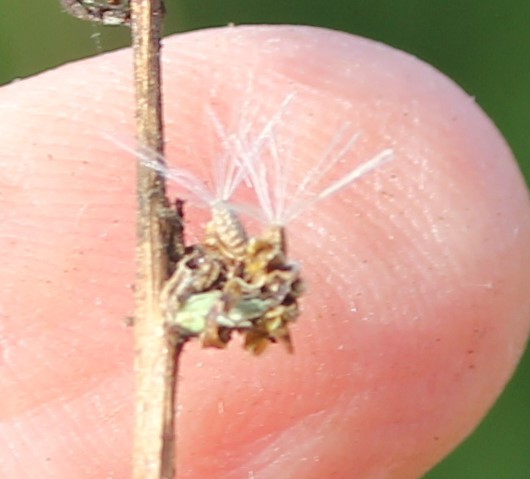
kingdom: Plantae
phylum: Tracheophyta
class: Magnoliopsida
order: Asterales
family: Asteraceae
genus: Stephanomeria
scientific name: Stephanomeria diegensis
